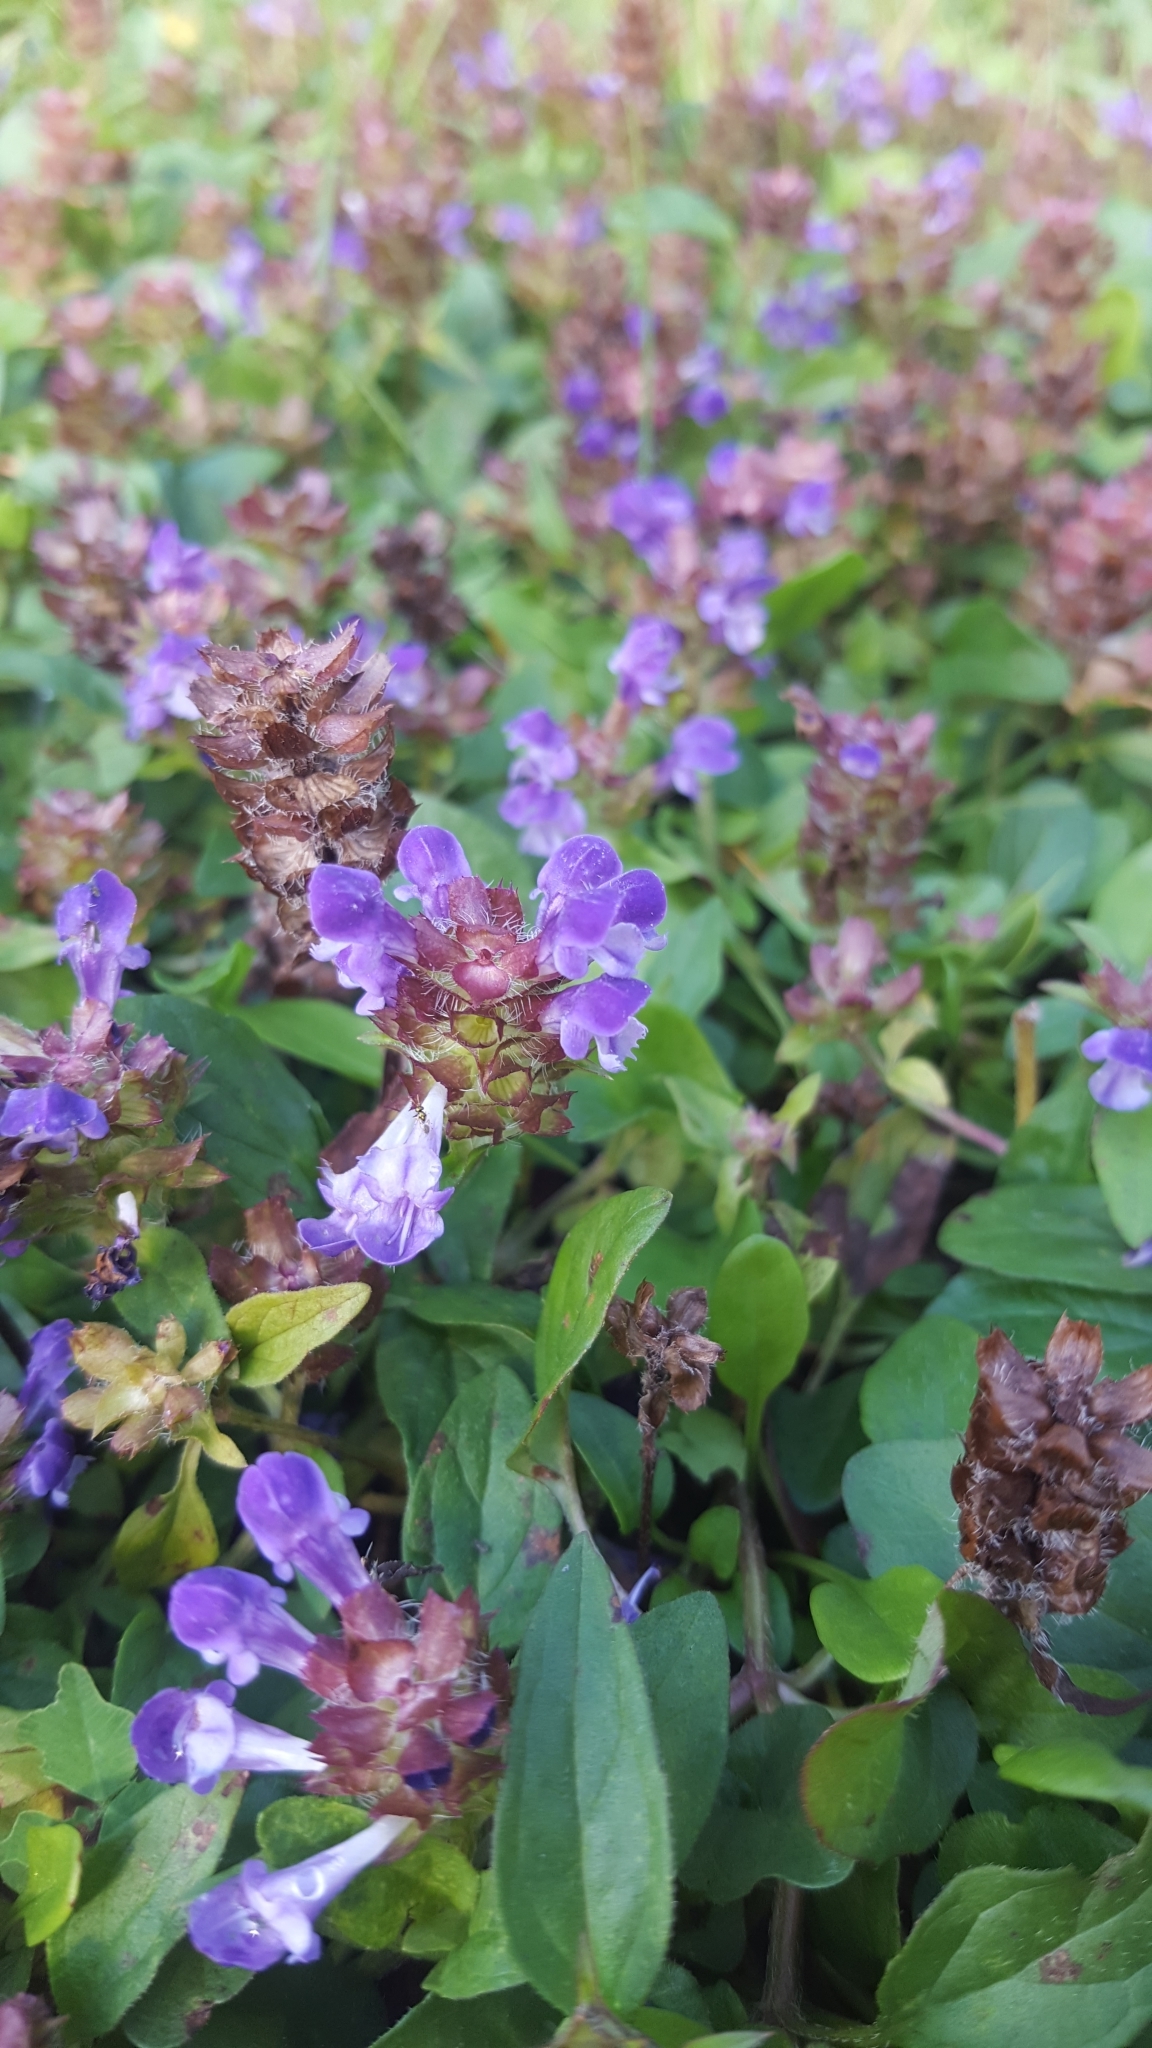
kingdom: Plantae
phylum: Tracheophyta
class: Magnoliopsida
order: Lamiales
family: Lamiaceae
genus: Prunella
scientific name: Prunella vulgaris
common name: Heal-all
